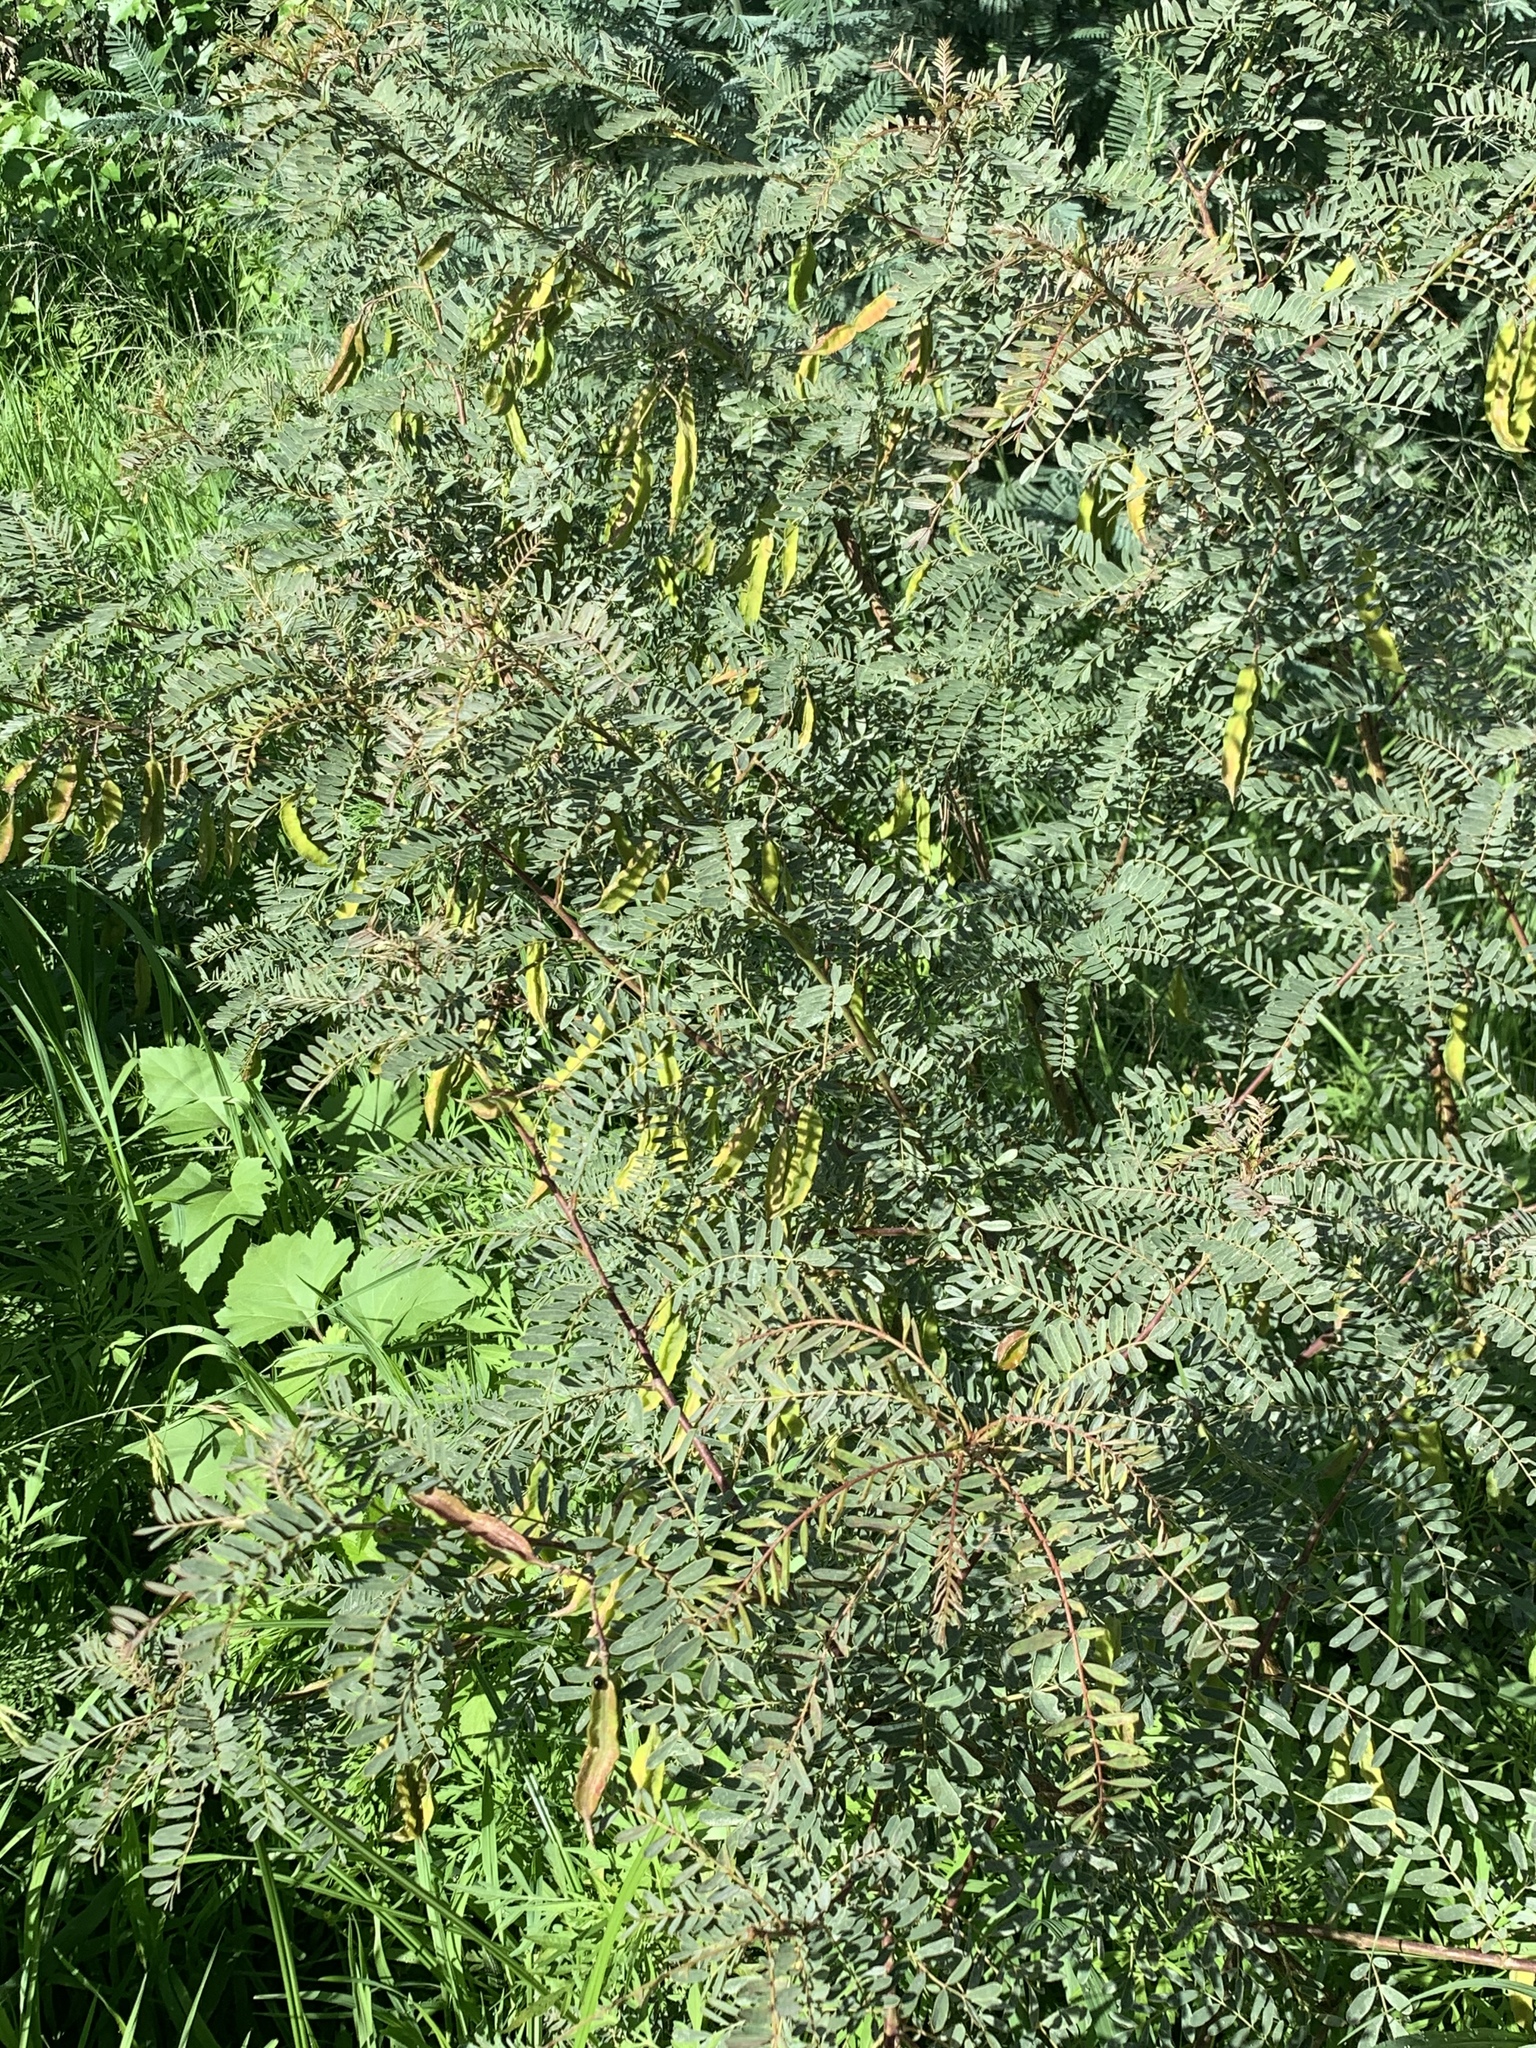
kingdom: Plantae
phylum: Tracheophyta
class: Magnoliopsida
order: Fabales
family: Fabaceae
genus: Sesbania
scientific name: Sesbania punicea
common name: Rattlebox
